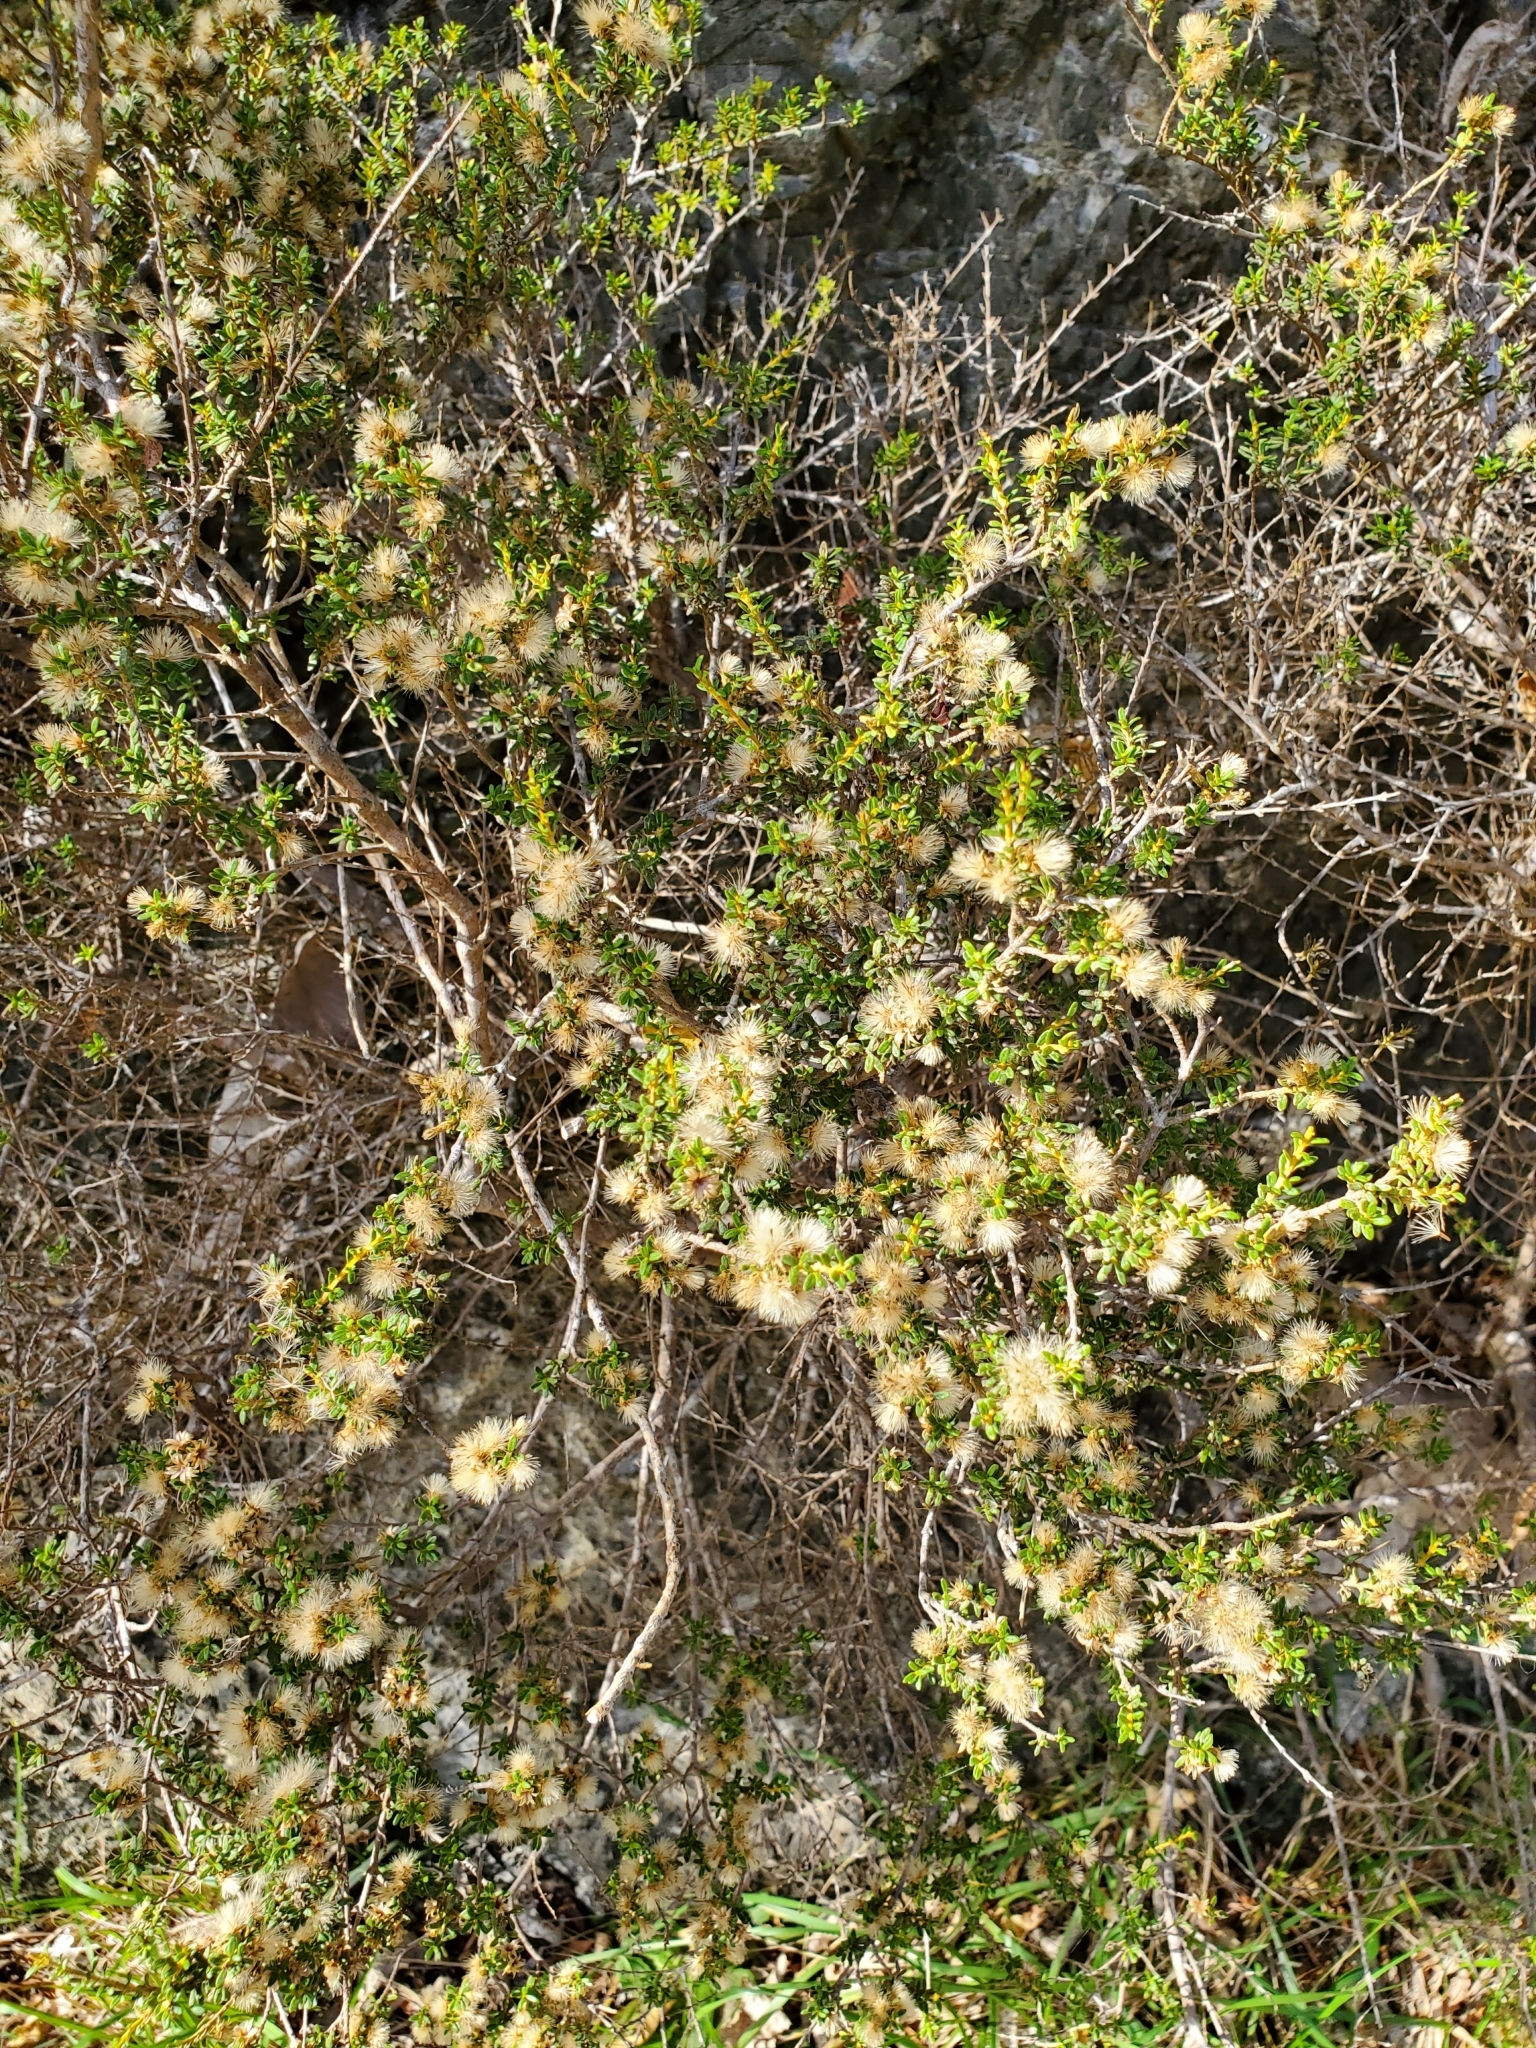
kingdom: Plantae
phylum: Tracheophyta
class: Magnoliopsida
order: Asterales
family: Asteraceae
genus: Olearia
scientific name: Olearia solandri
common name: Coastal daisybush
